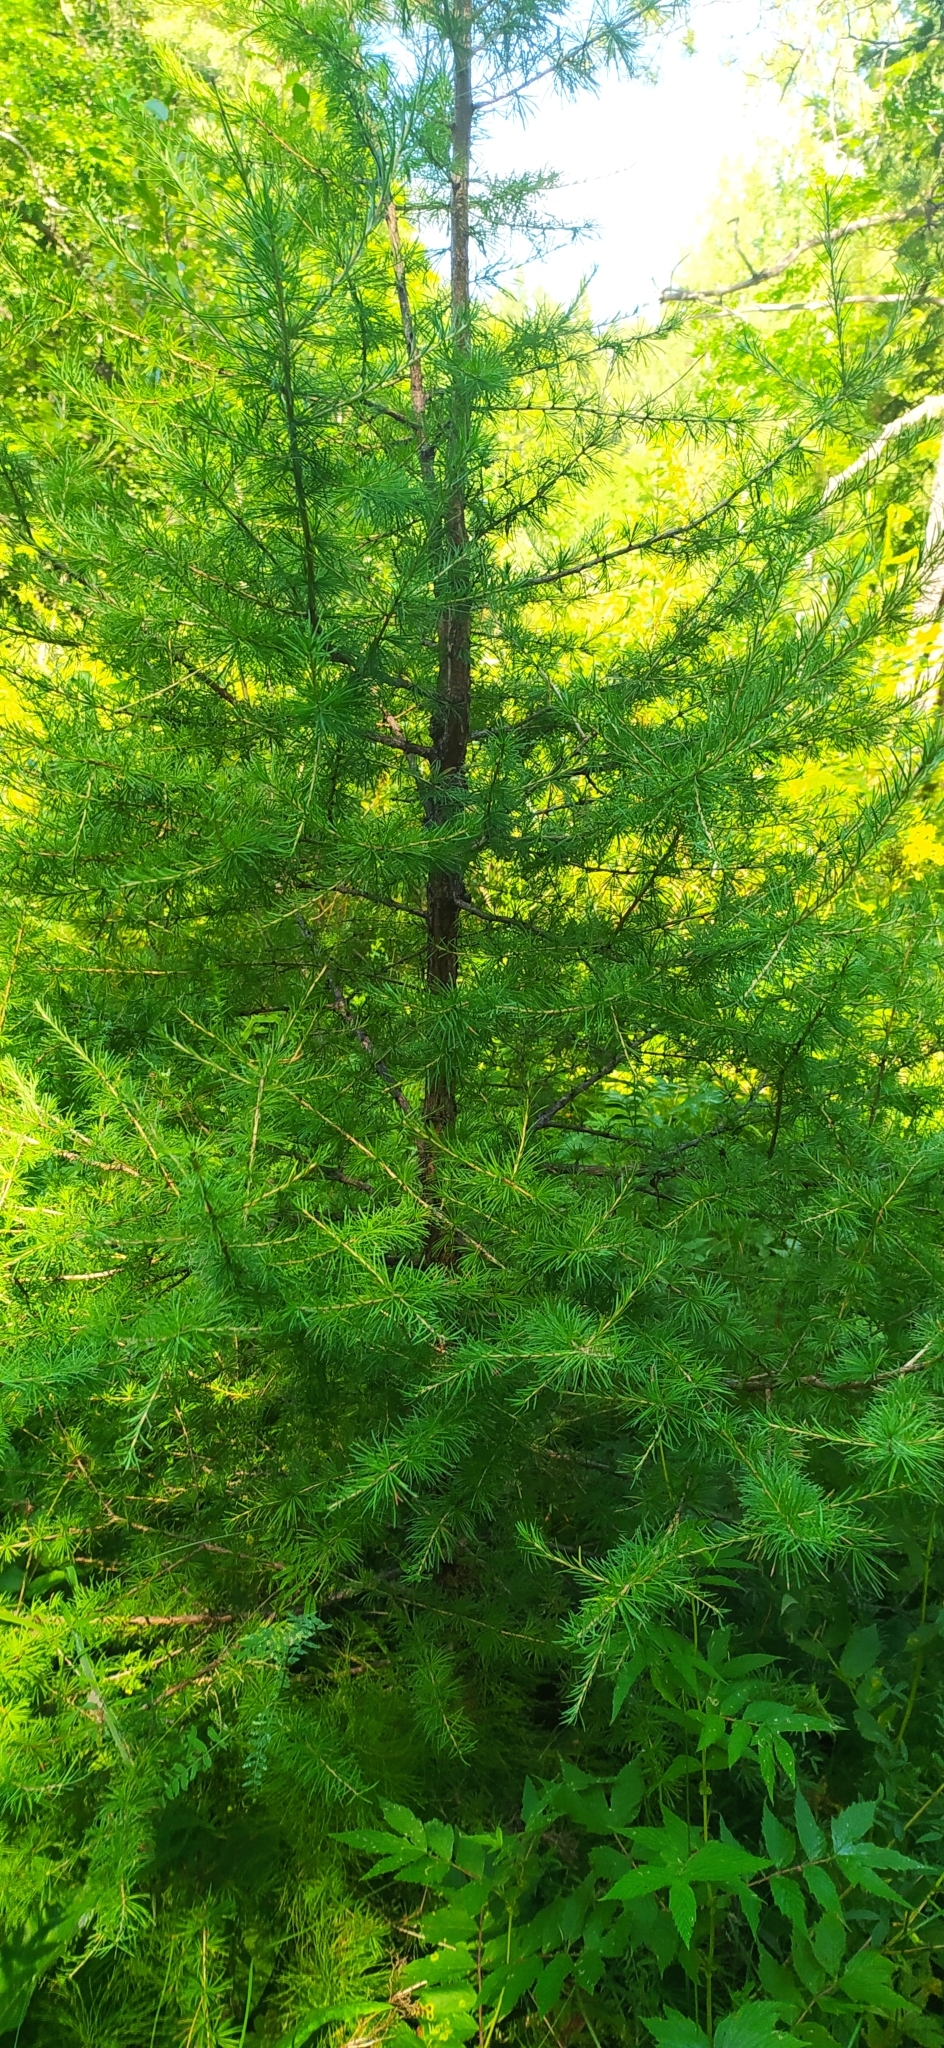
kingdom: Plantae
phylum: Tracheophyta
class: Pinopsida
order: Pinales
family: Pinaceae
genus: Larix
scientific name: Larix sibirica
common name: Siberian larch
